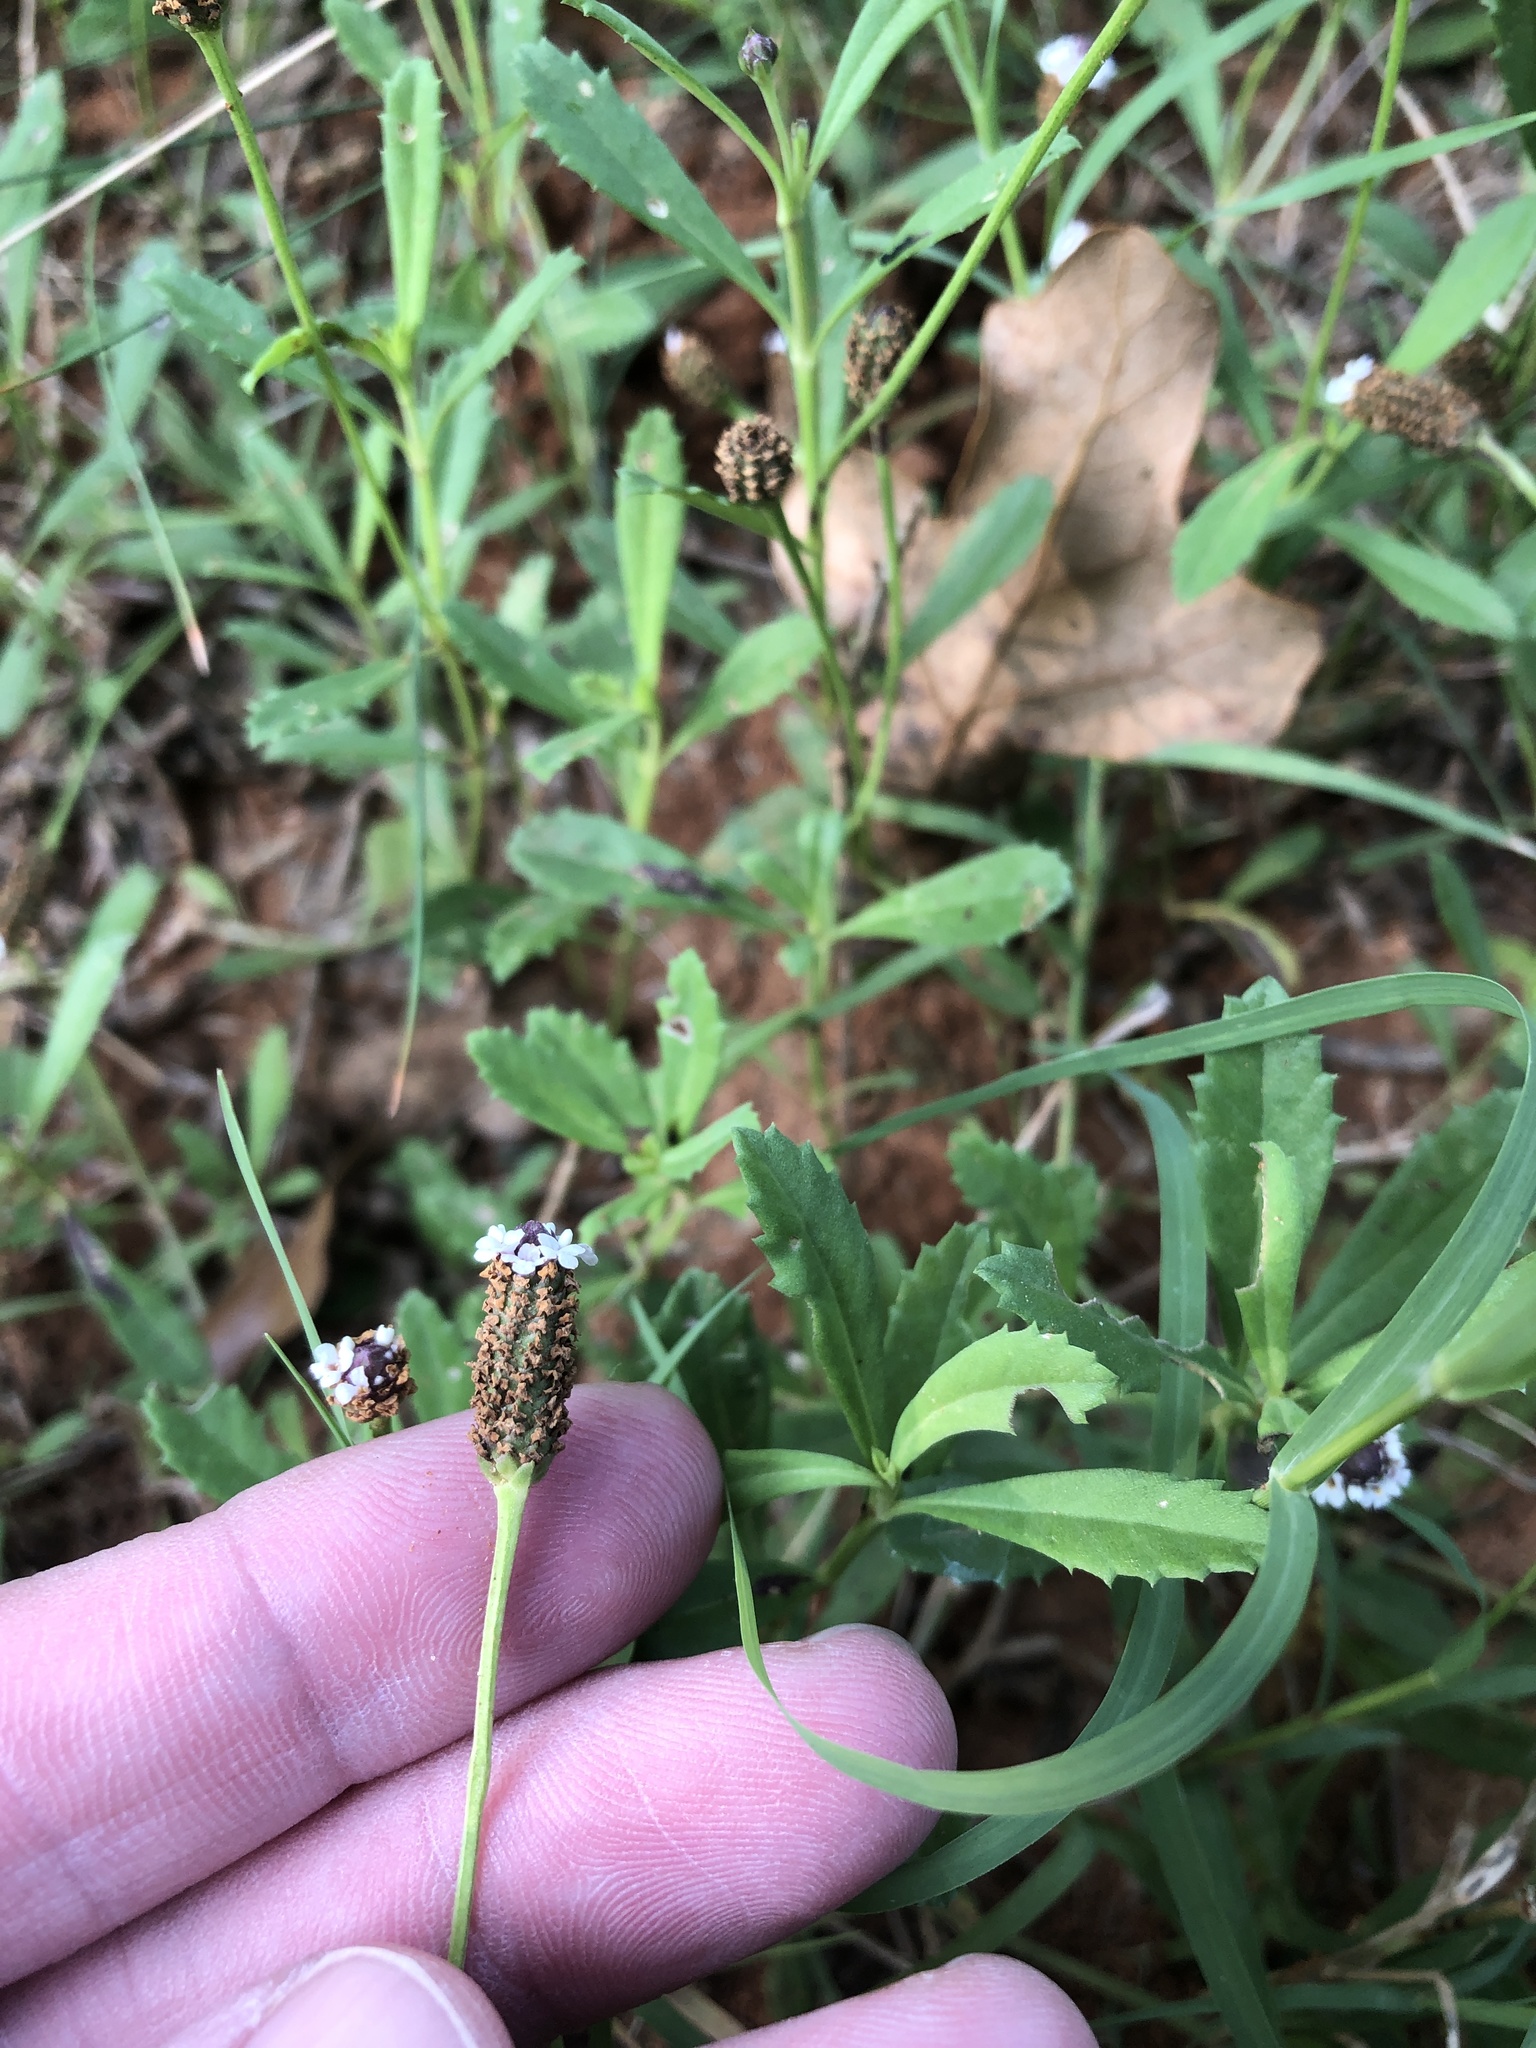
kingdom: Plantae
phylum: Tracheophyta
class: Magnoliopsida
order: Lamiales
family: Verbenaceae
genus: Phyla
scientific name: Phyla nodiflora
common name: Frogfruit
